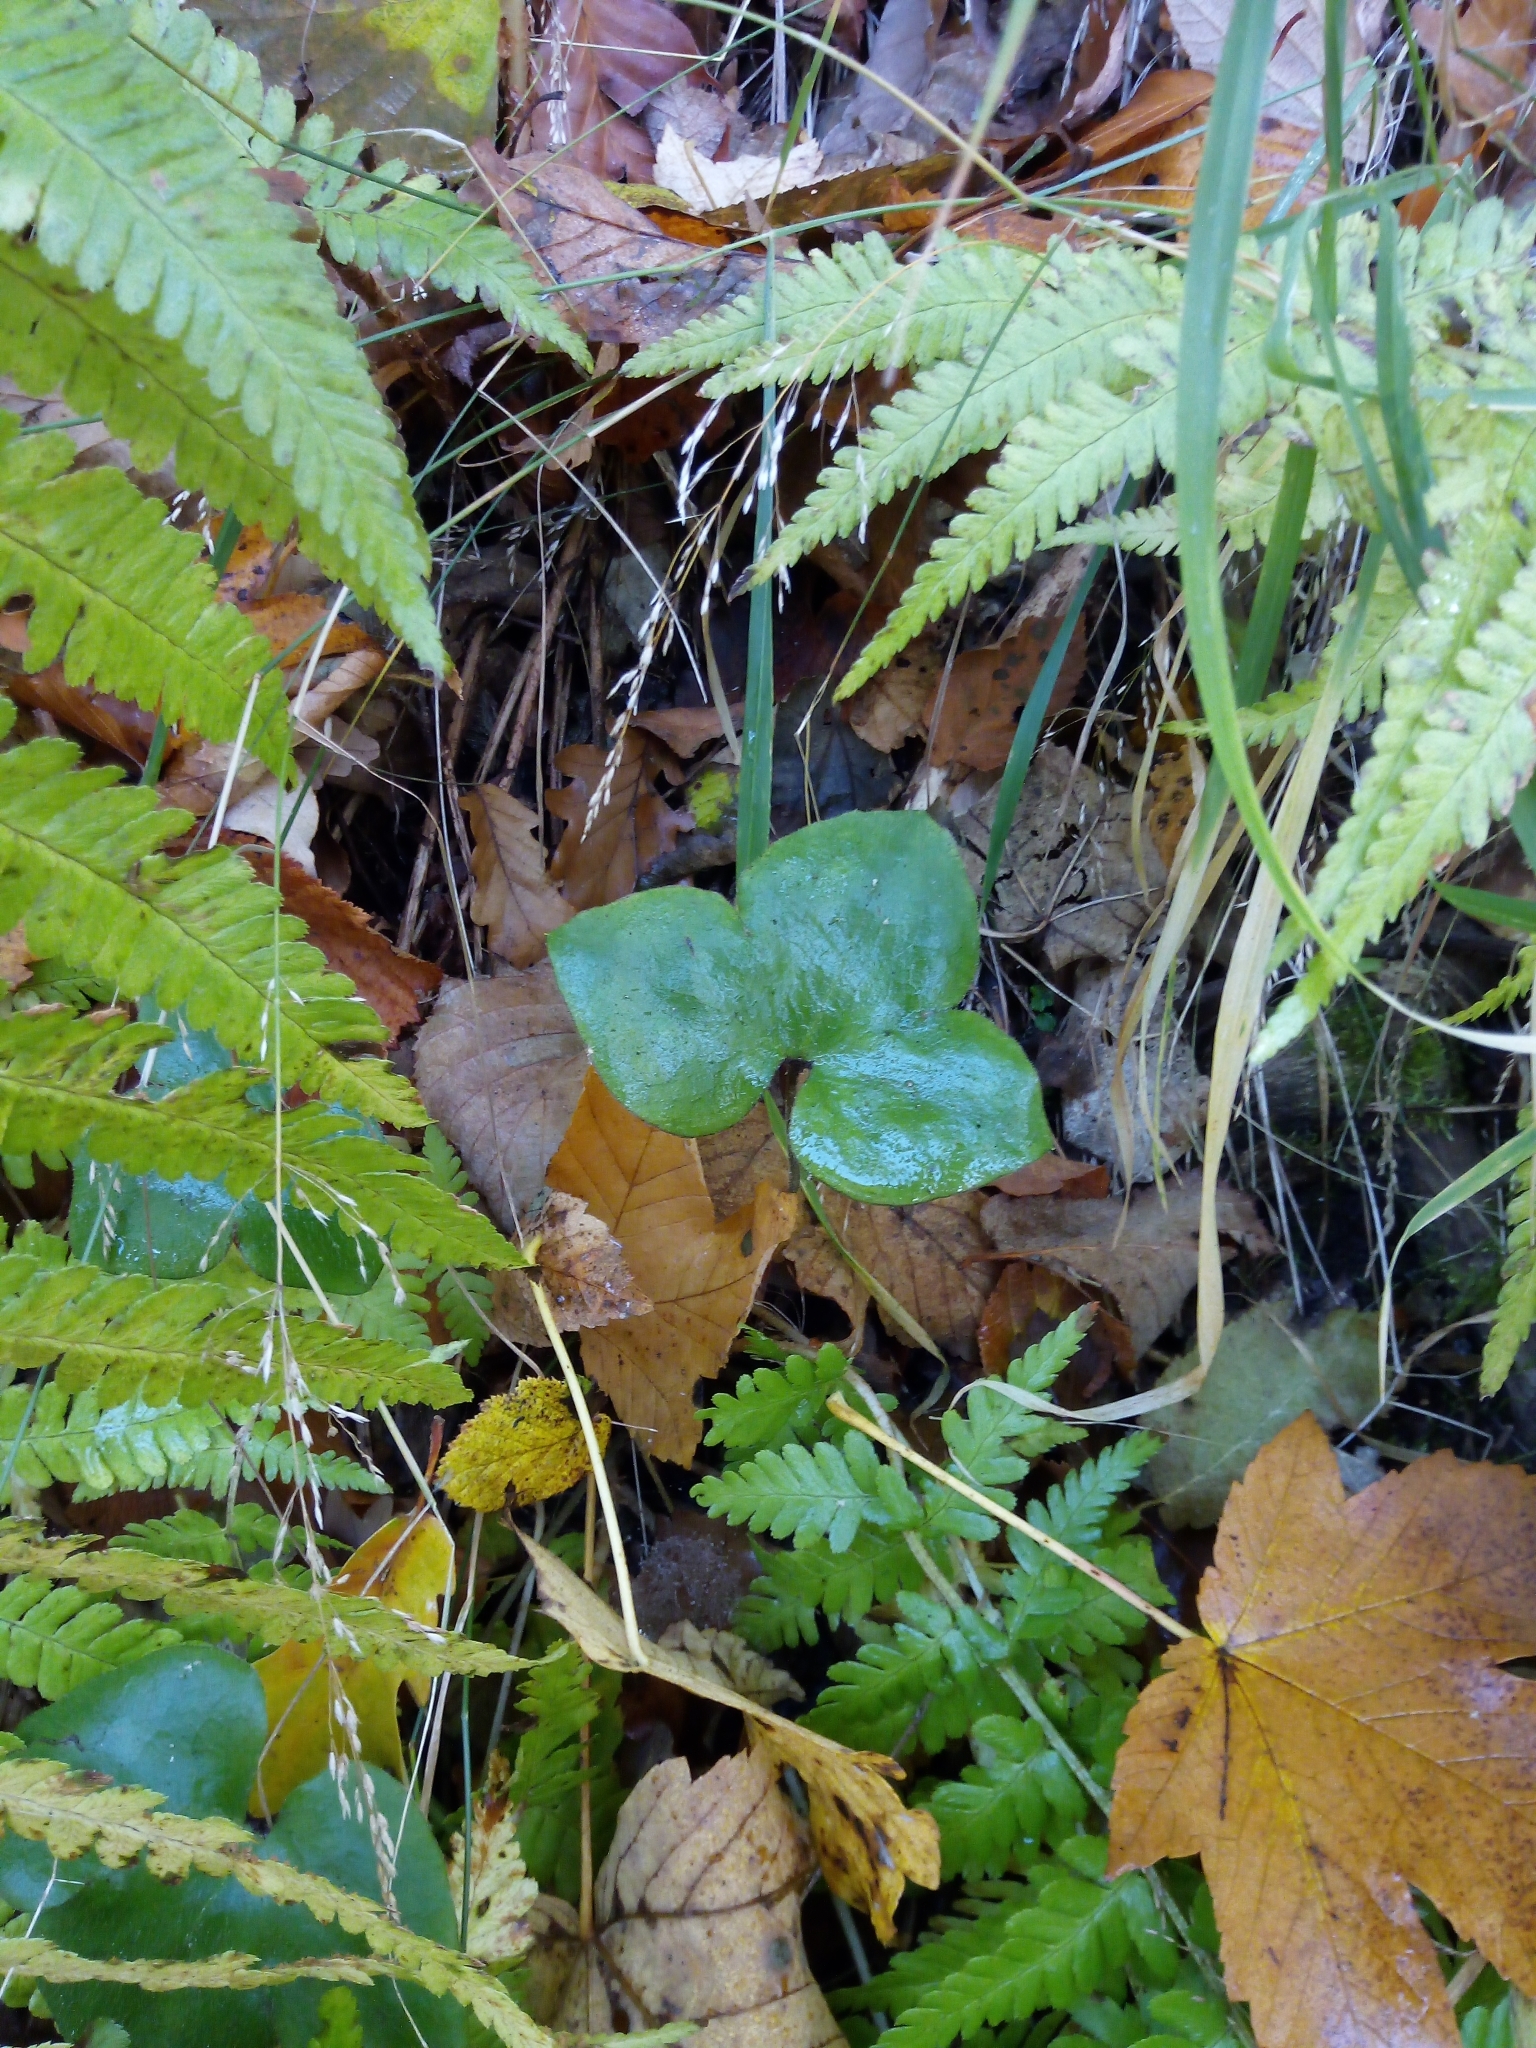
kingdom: Plantae
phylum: Tracheophyta
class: Magnoliopsida
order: Ranunculales
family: Ranunculaceae
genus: Hepatica
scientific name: Hepatica nobilis
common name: Liverleaf
